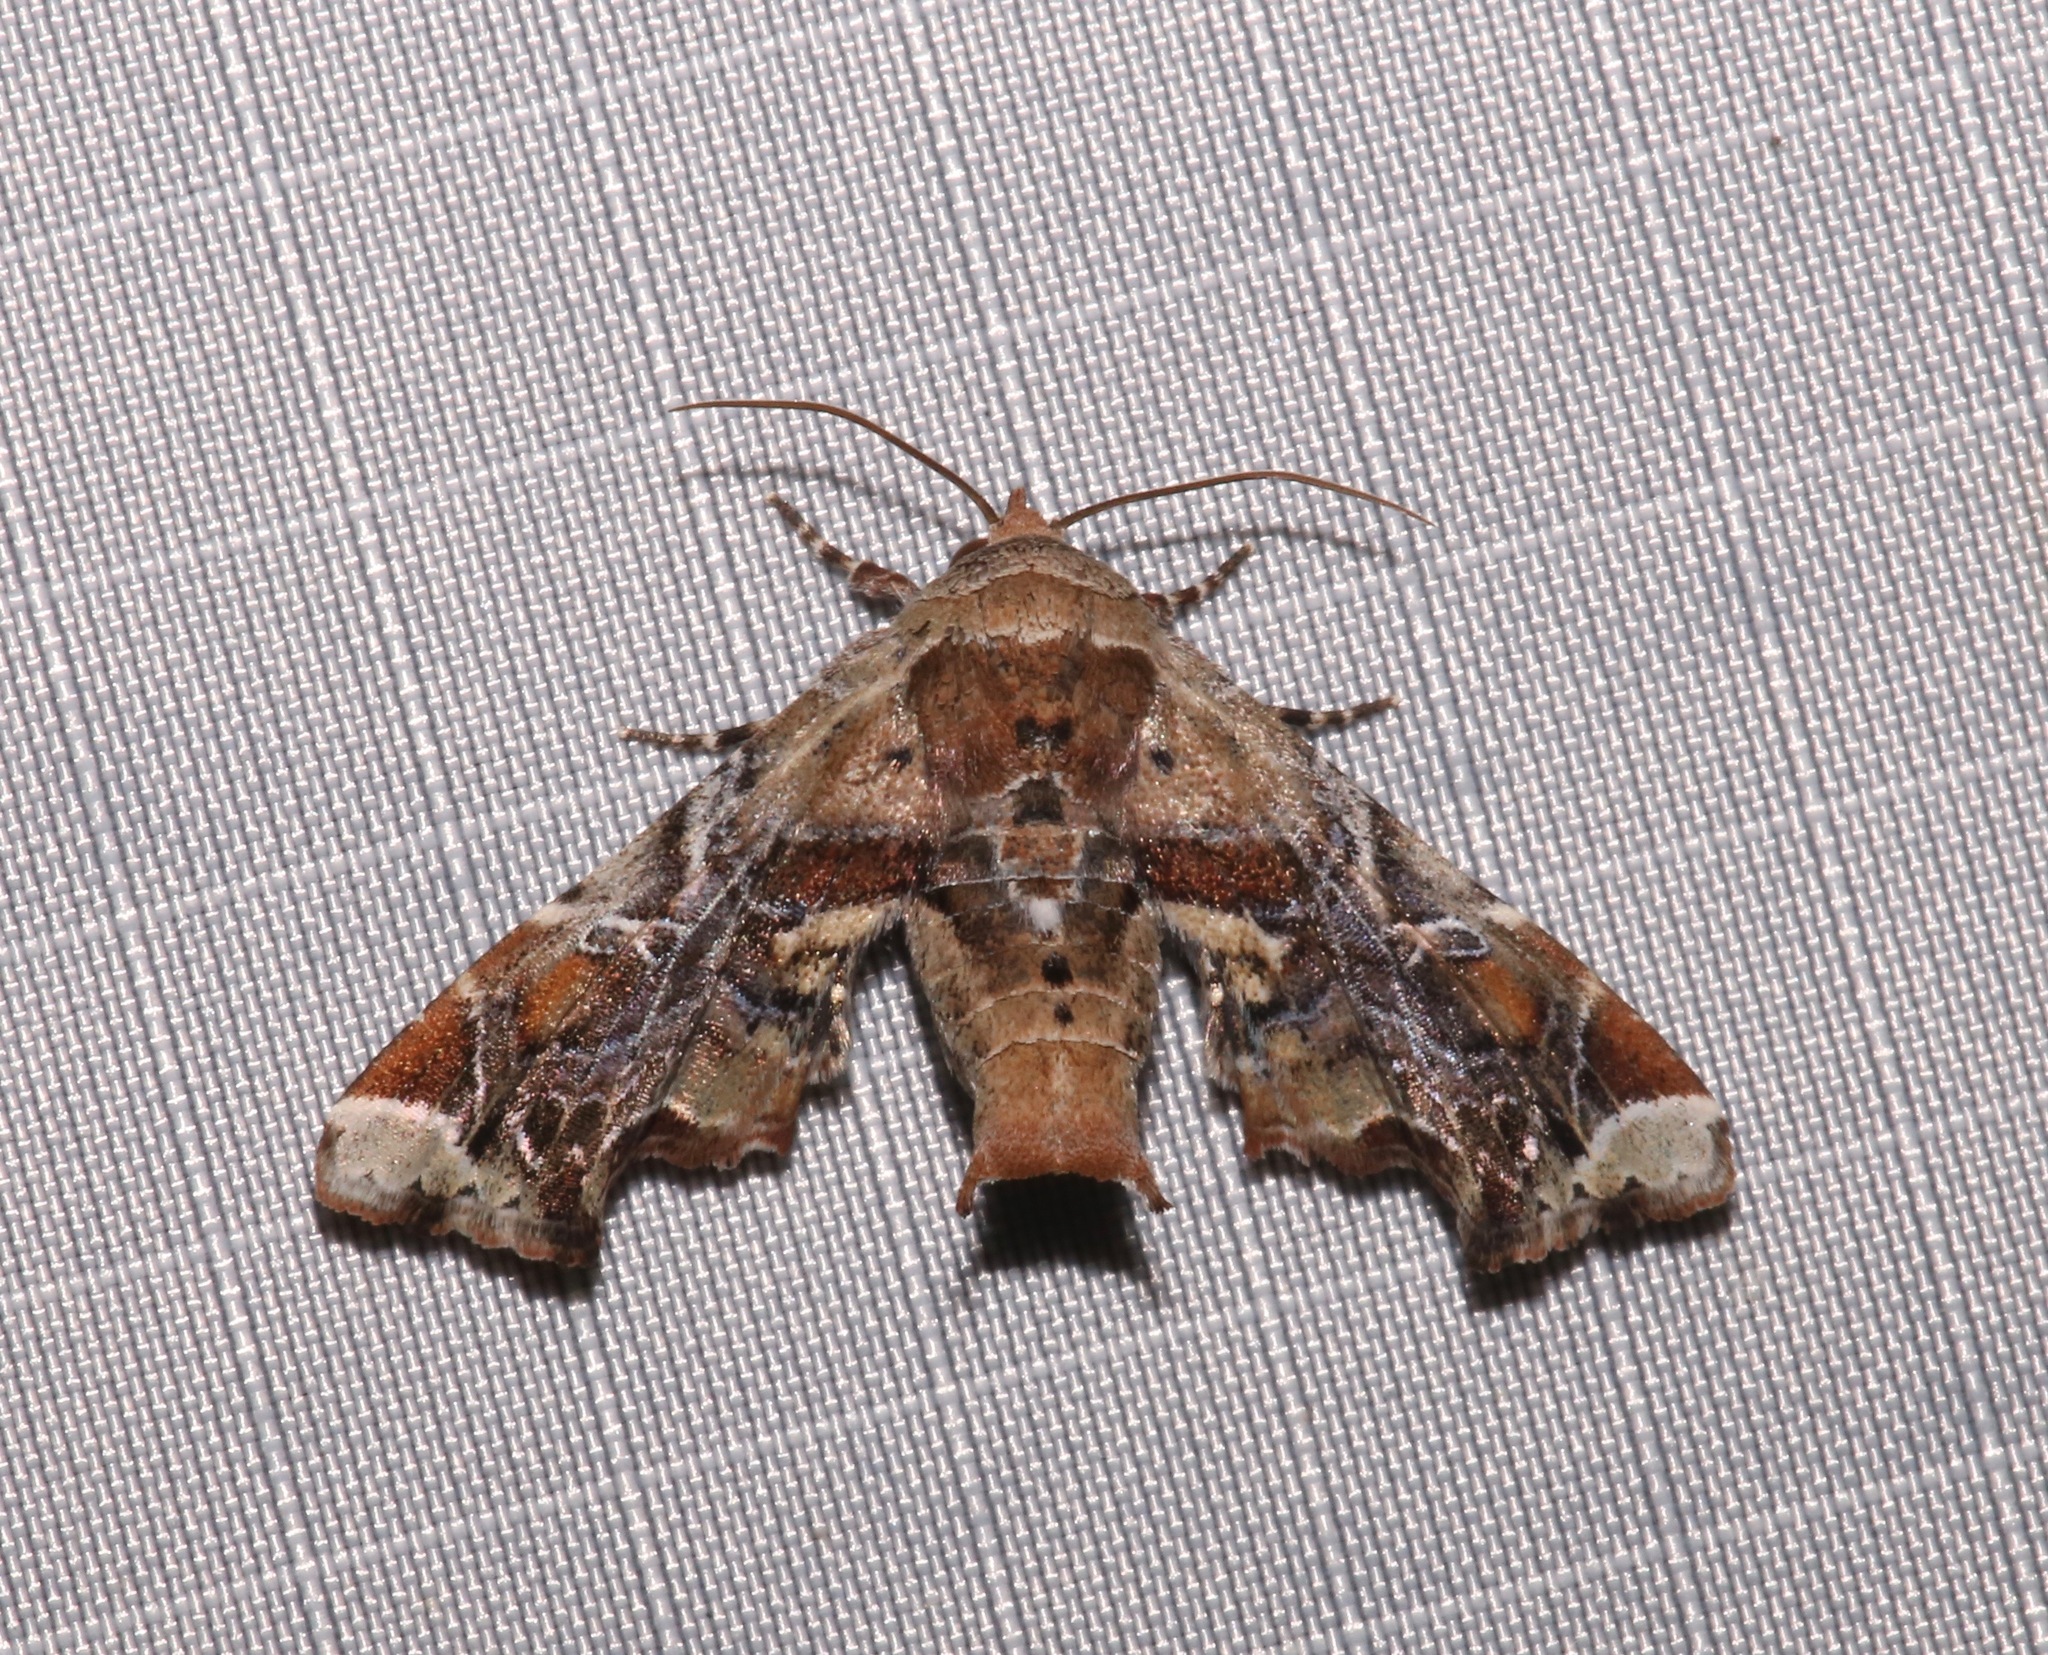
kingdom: Animalia
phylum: Arthropoda
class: Insecta
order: Lepidoptera
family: Euteliidae
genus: Eutelia
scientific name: Eutelia furcata
